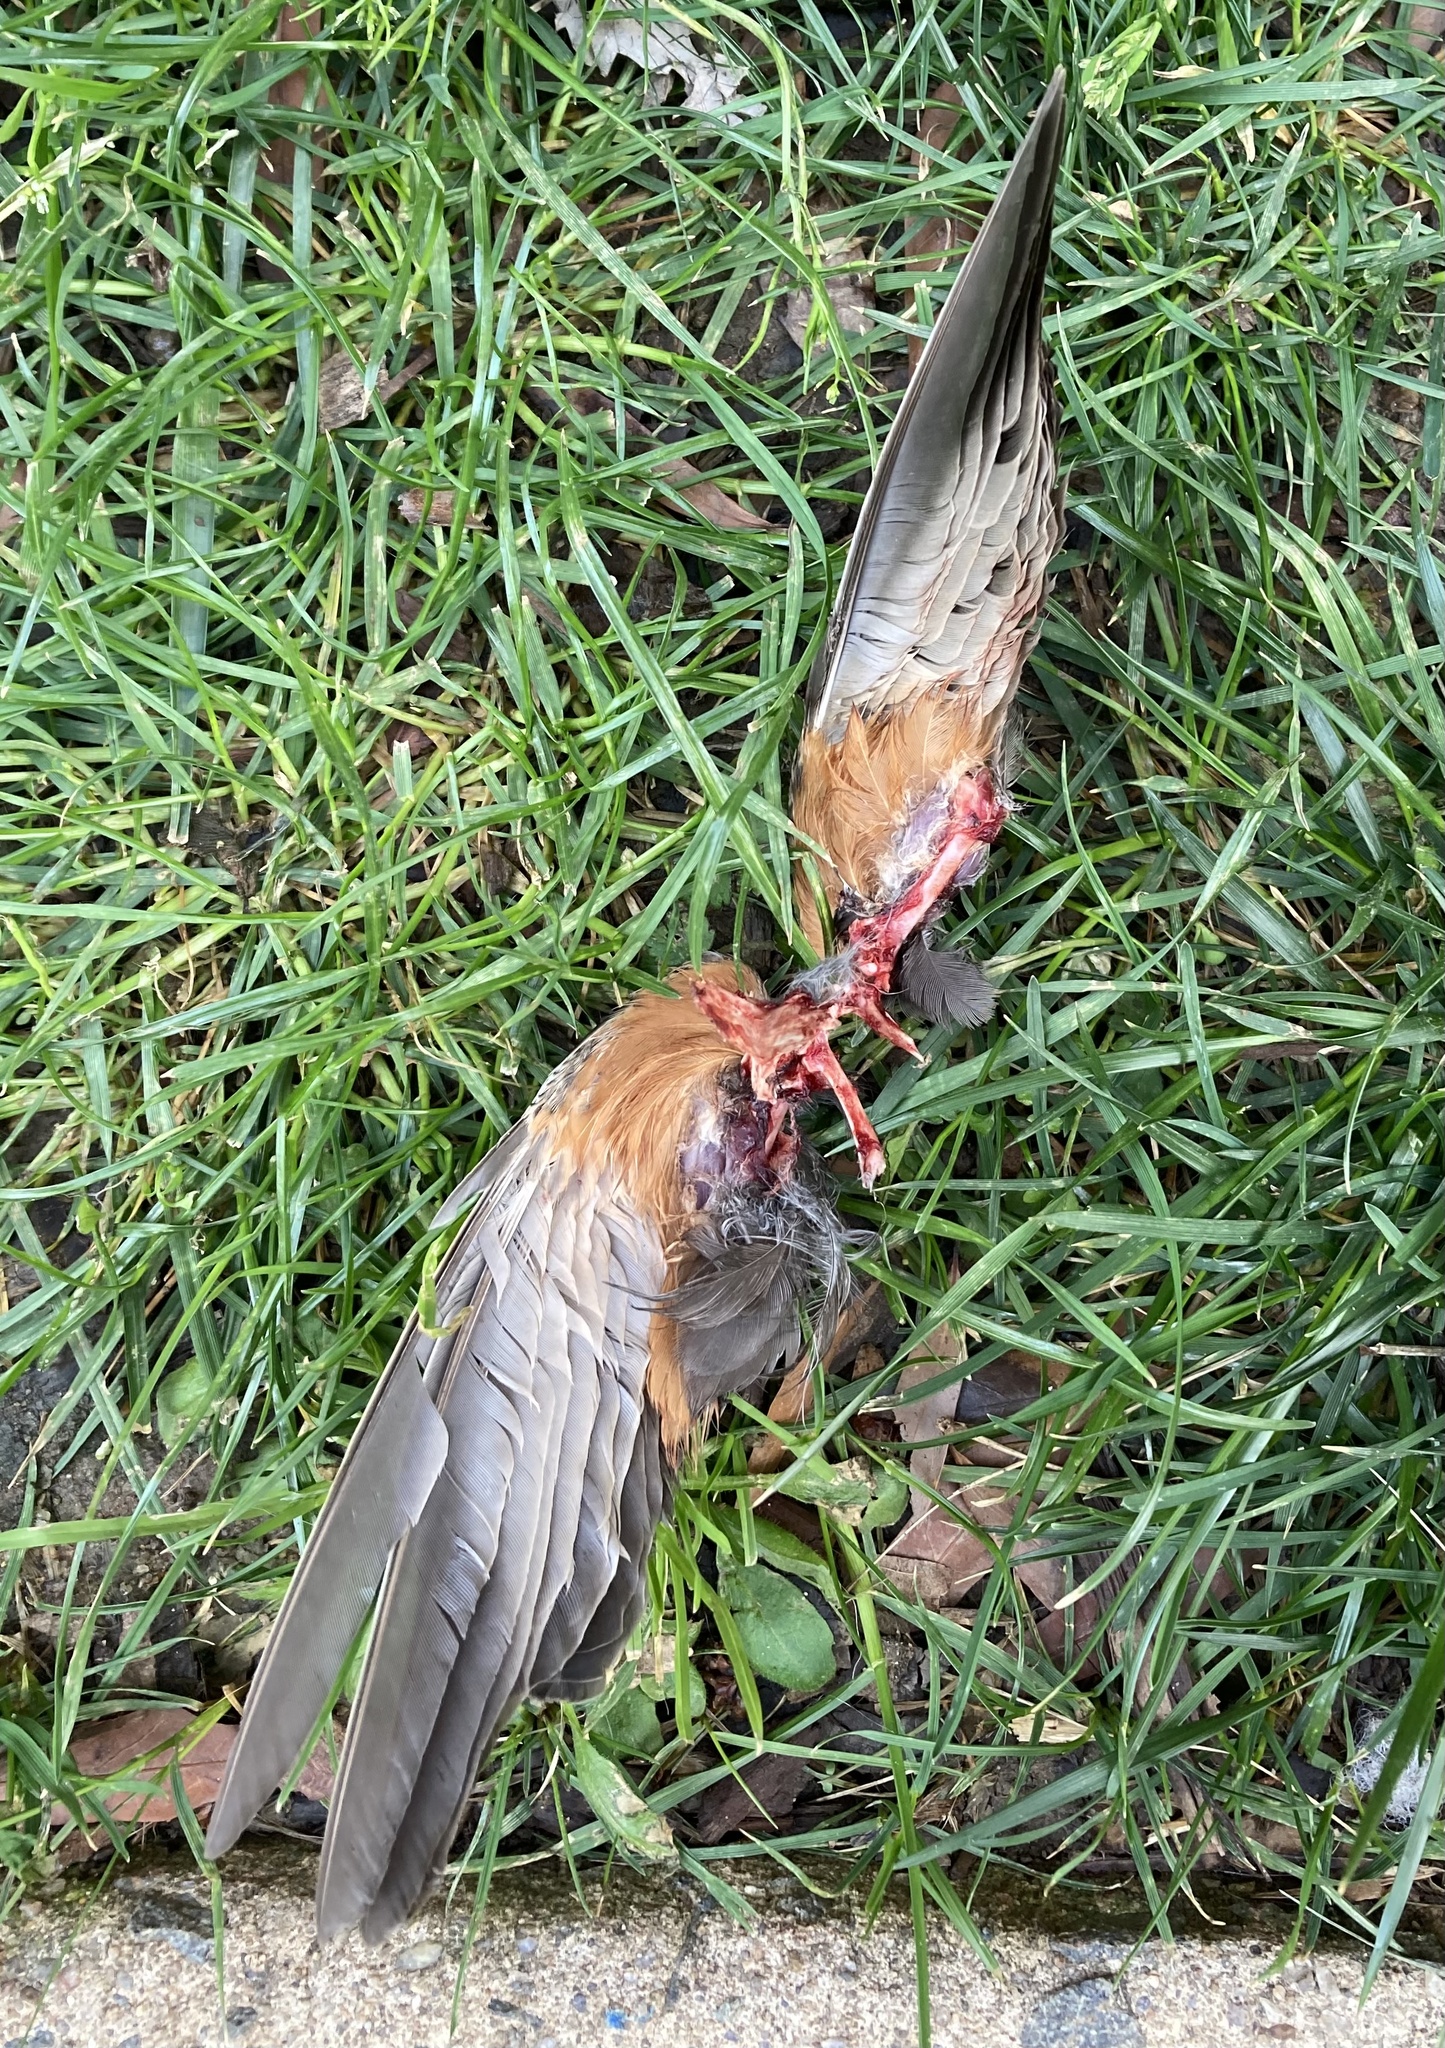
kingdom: Animalia
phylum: Chordata
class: Aves
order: Passeriformes
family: Turdidae
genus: Turdus
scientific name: Turdus migratorius
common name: American robin
